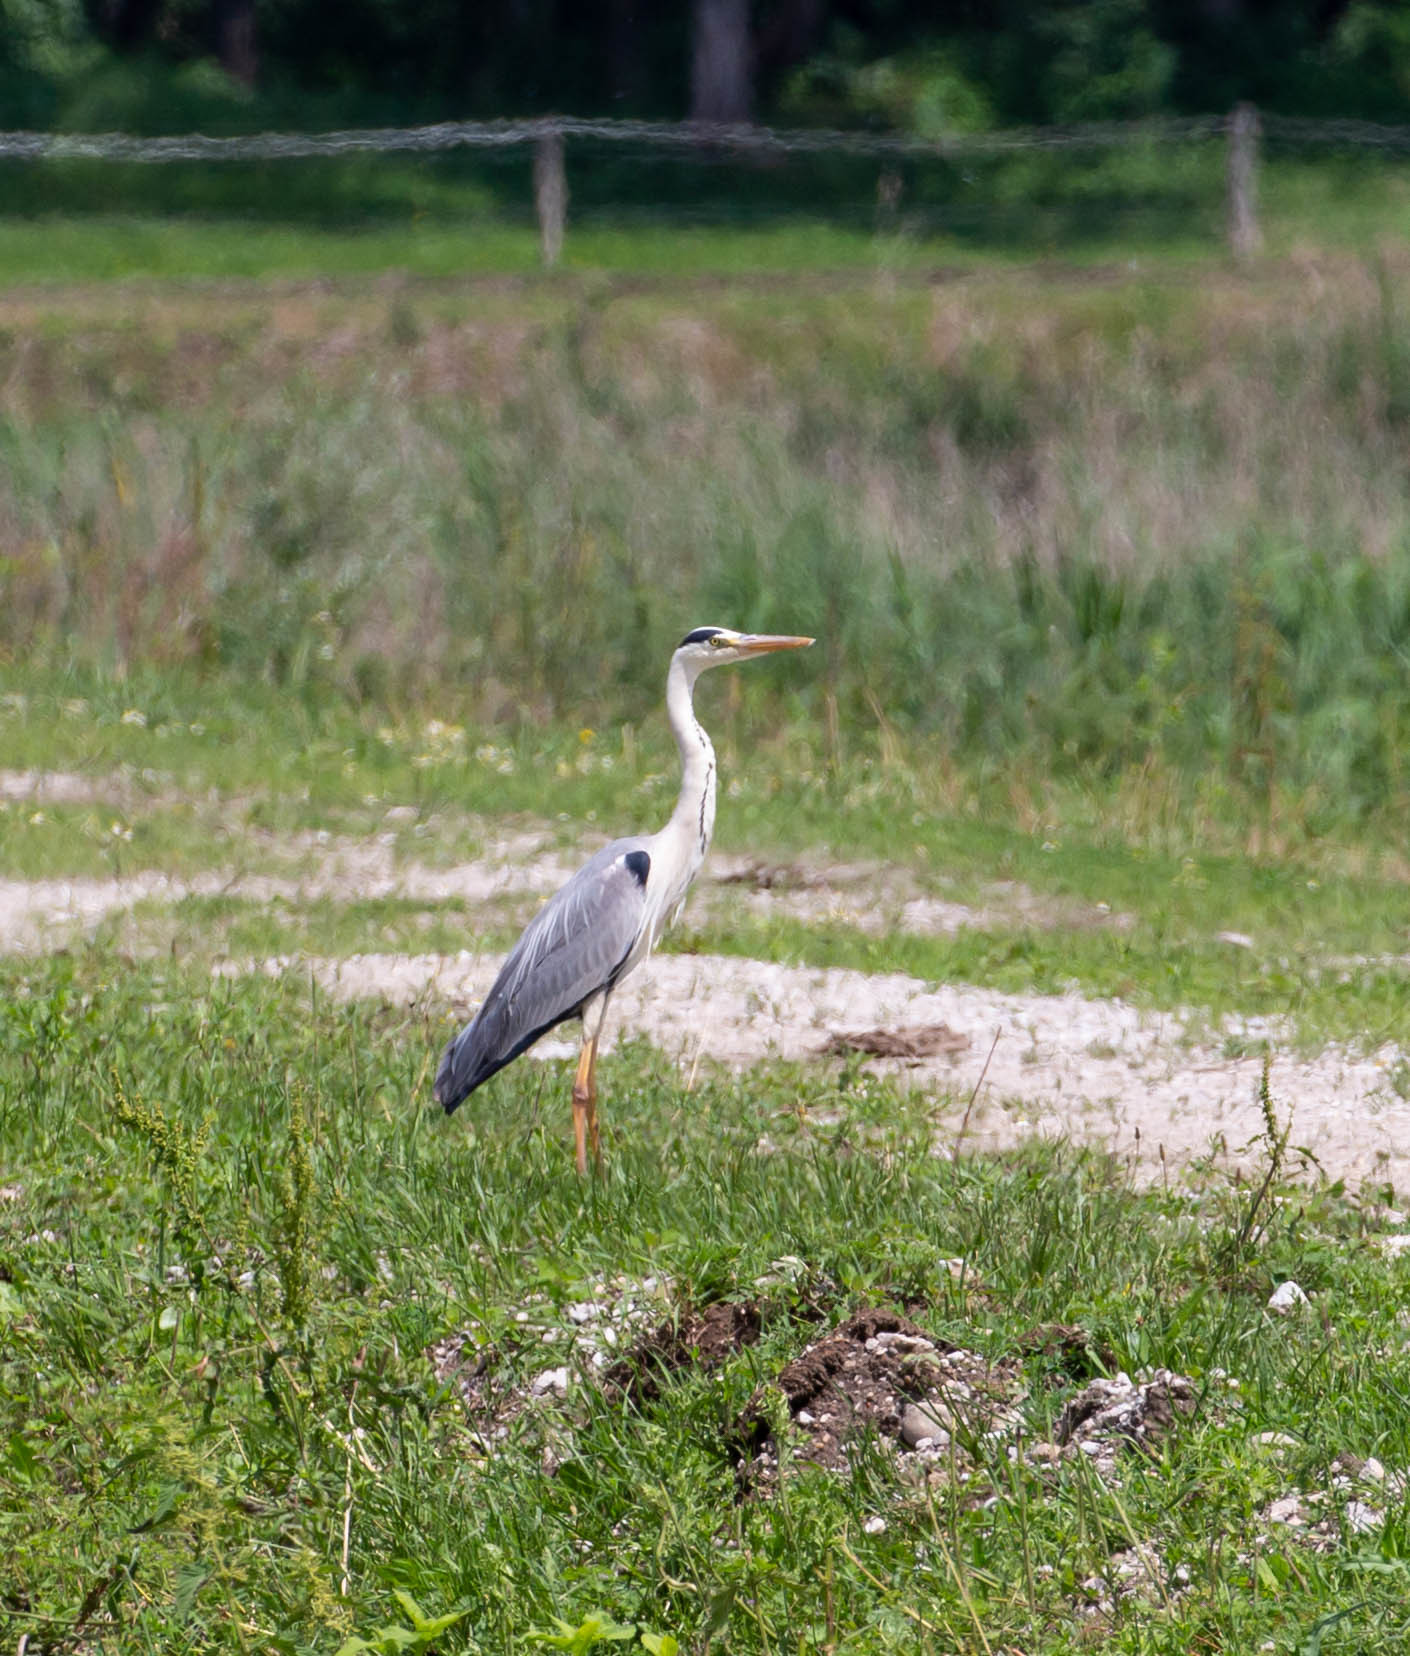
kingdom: Animalia
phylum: Chordata
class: Aves
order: Pelecaniformes
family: Ardeidae
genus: Ardea
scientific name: Ardea cinerea
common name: Grey heron
